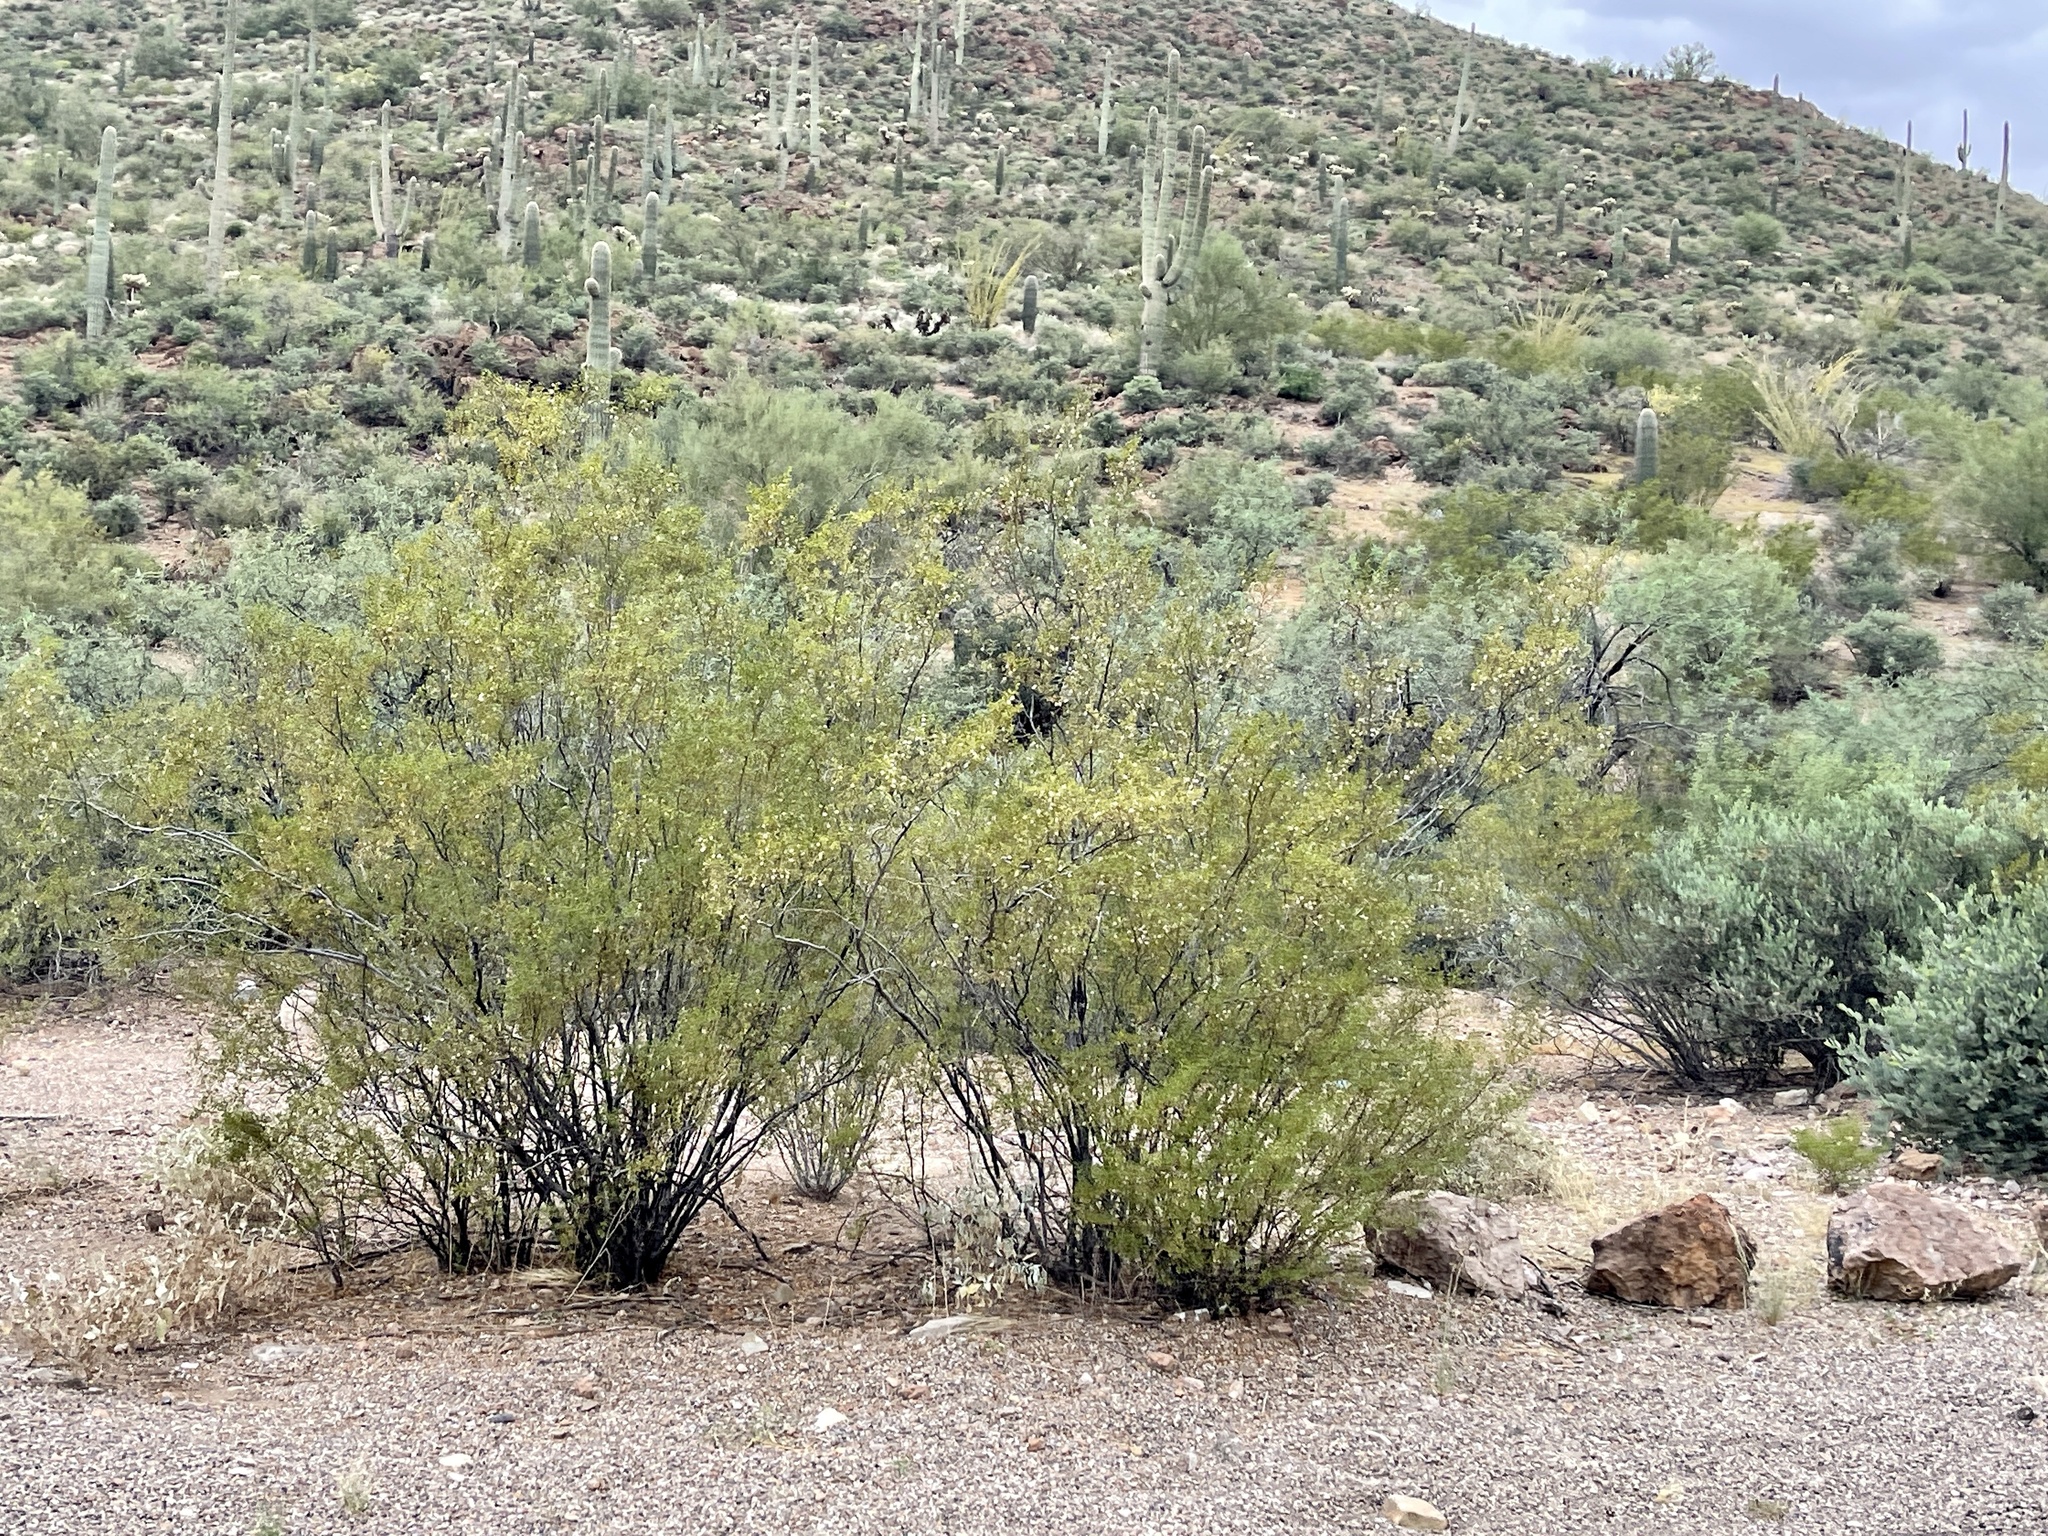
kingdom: Plantae
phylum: Tracheophyta
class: Magnoliopsida
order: Zygophyllales
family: Zygophyllaceae
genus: Larrea
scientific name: Larrea tridentata
